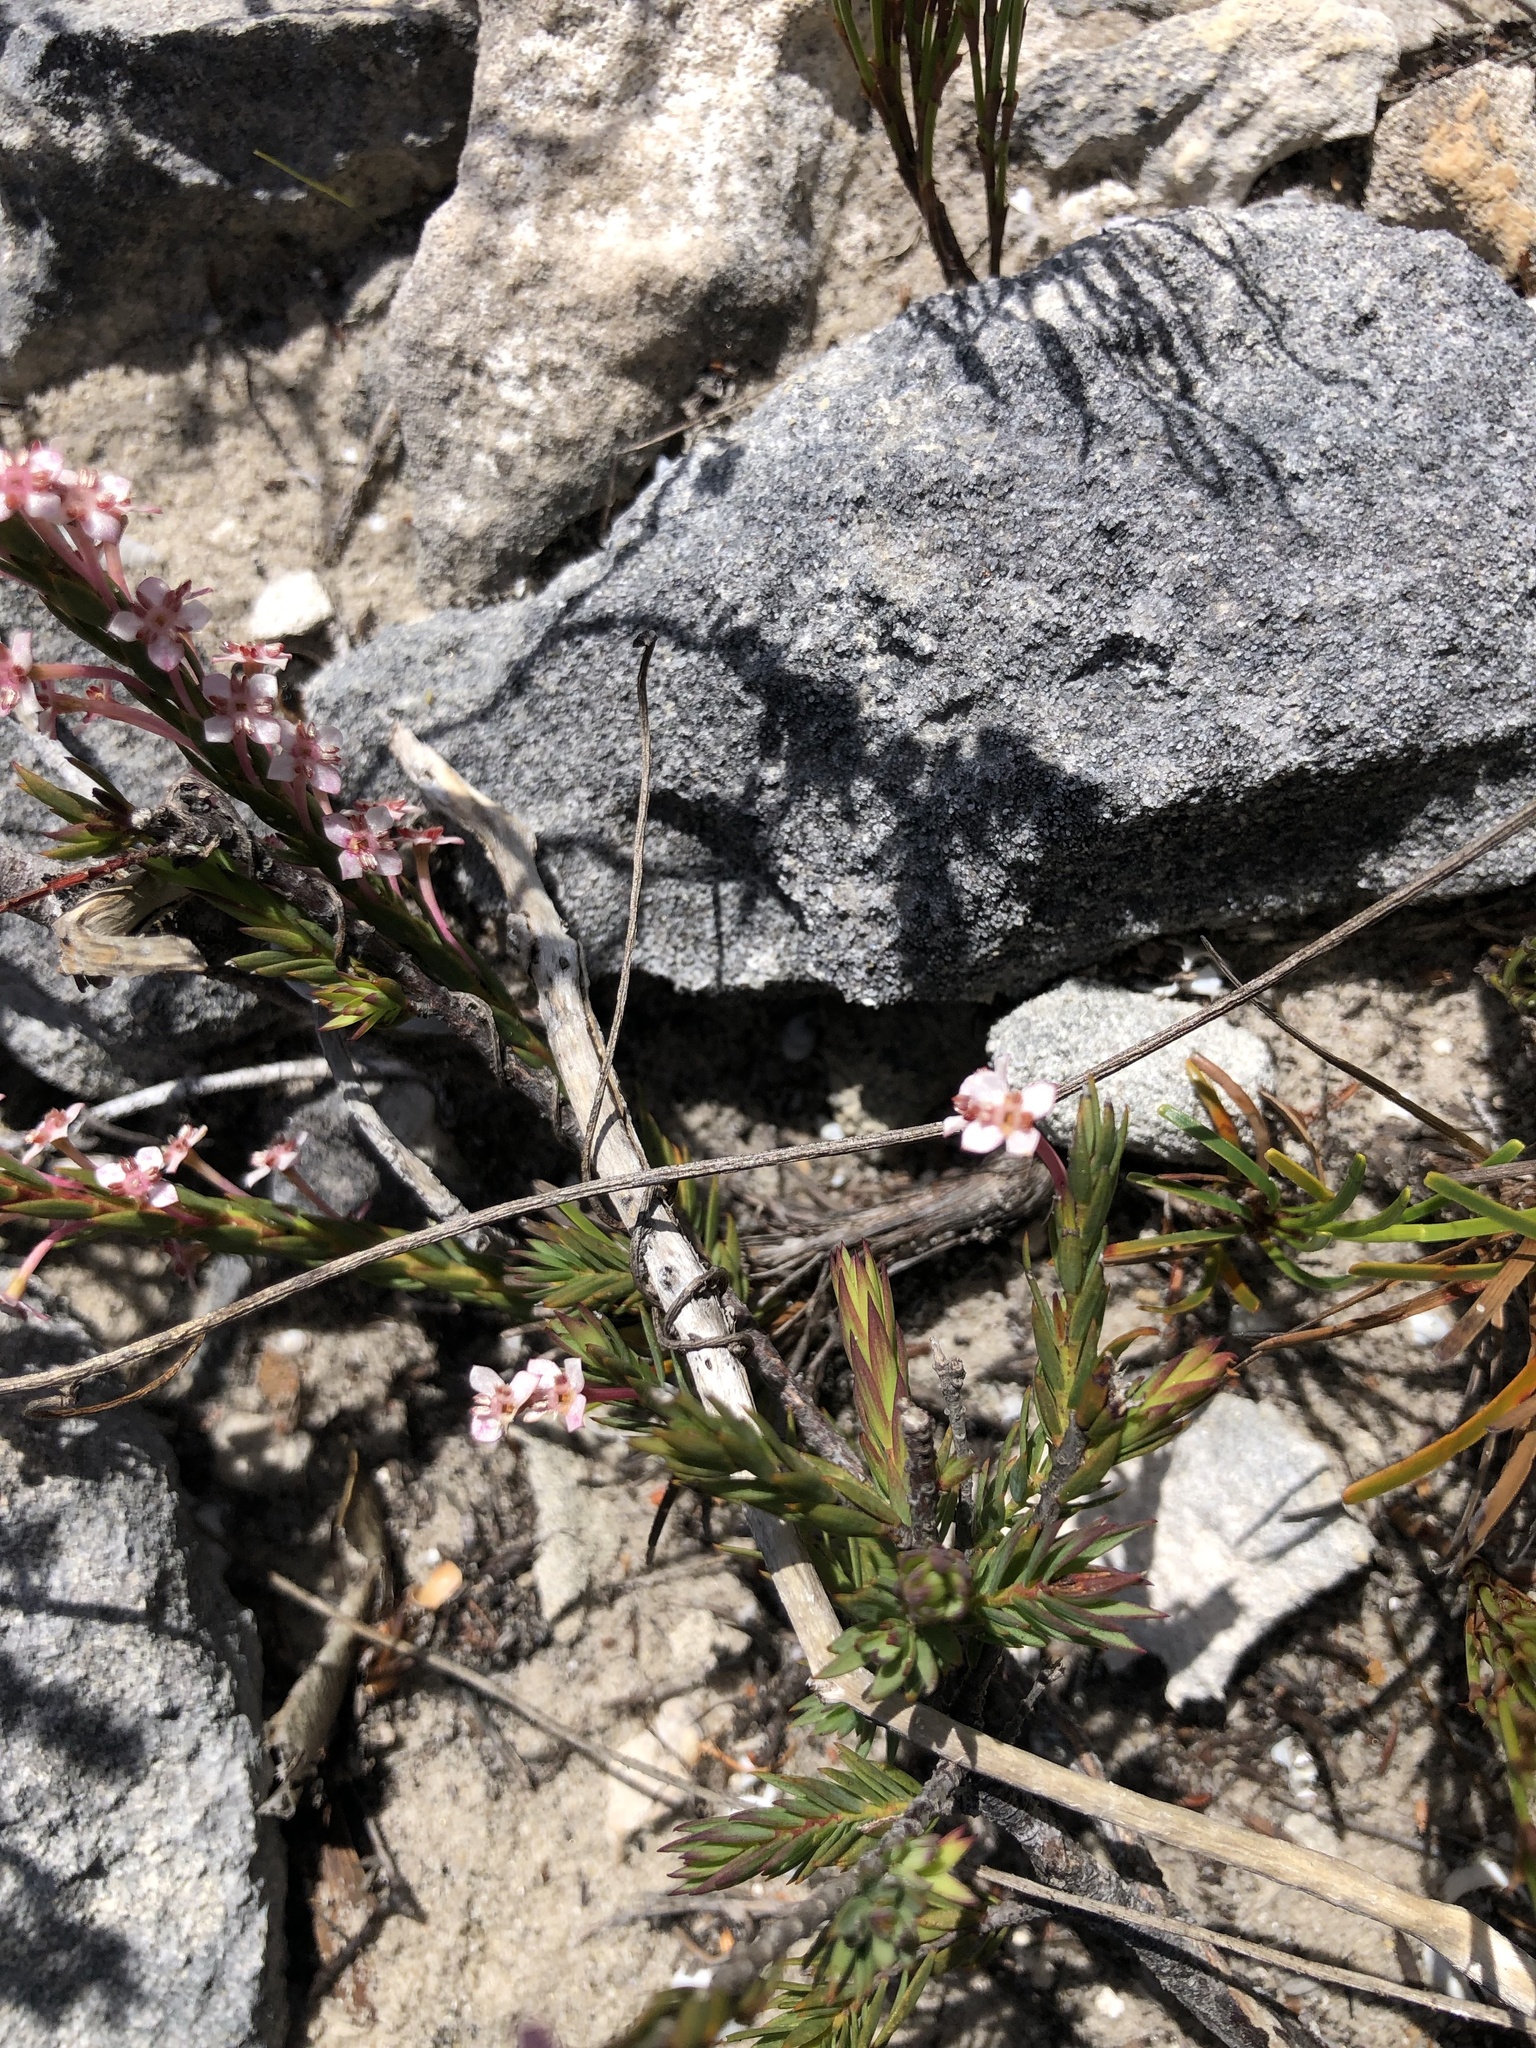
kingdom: Plantae
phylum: Tracheophyta
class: Magnoliopsida
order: Malvales
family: Thymelaeaceae
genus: Struthiola
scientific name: Struthiola myrsinites
